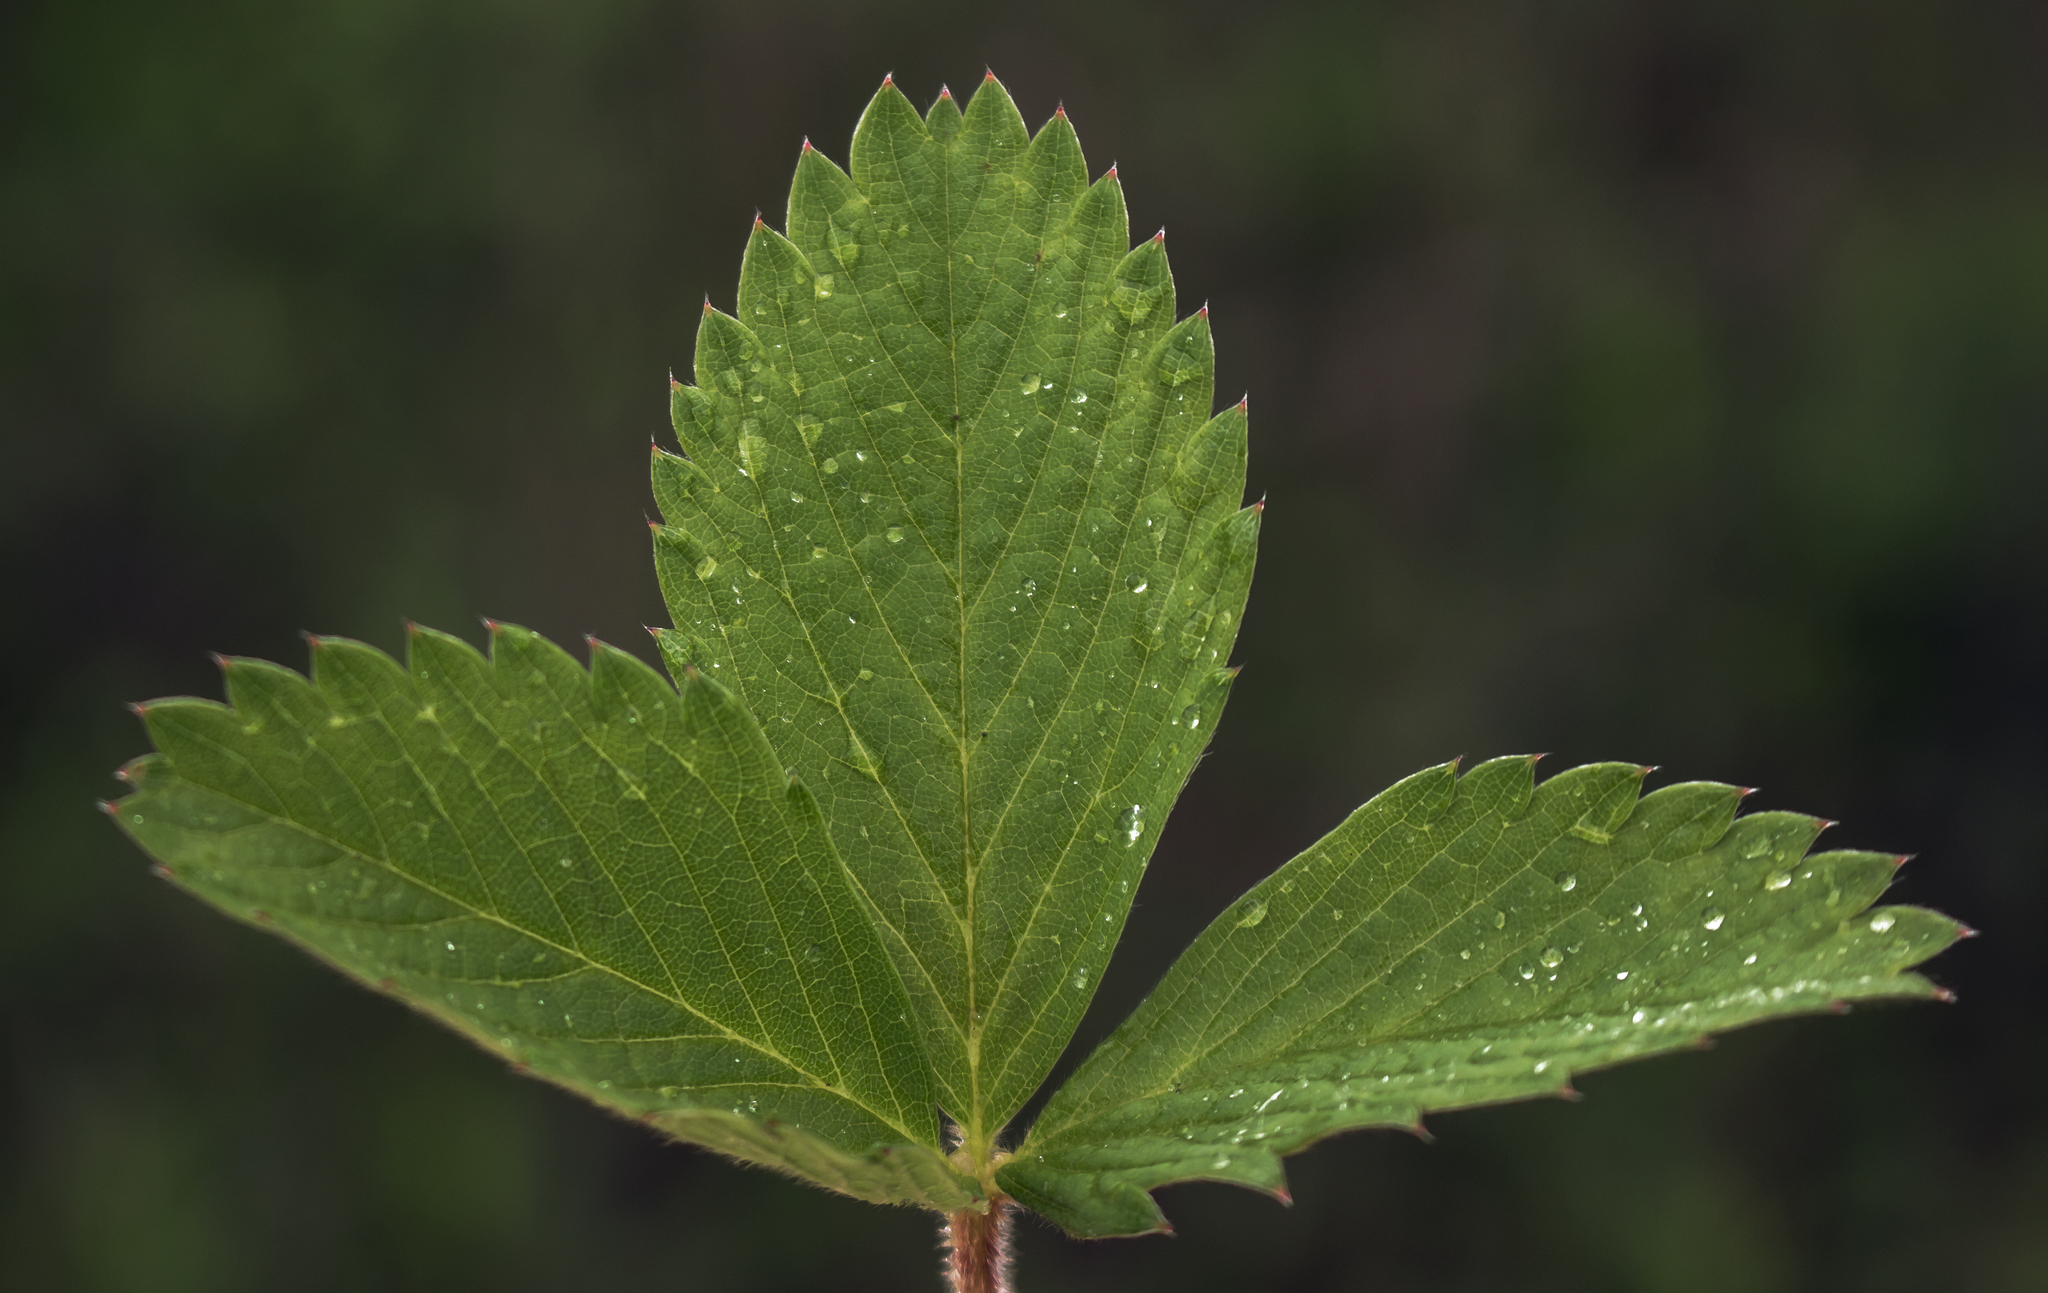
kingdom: Plantae
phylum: Tracheophyta
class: Magnoliopsida
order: Rosales
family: Rosaceae
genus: Fragaria
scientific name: Fragaria virginiana
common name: Thickleaved wild strawberry
